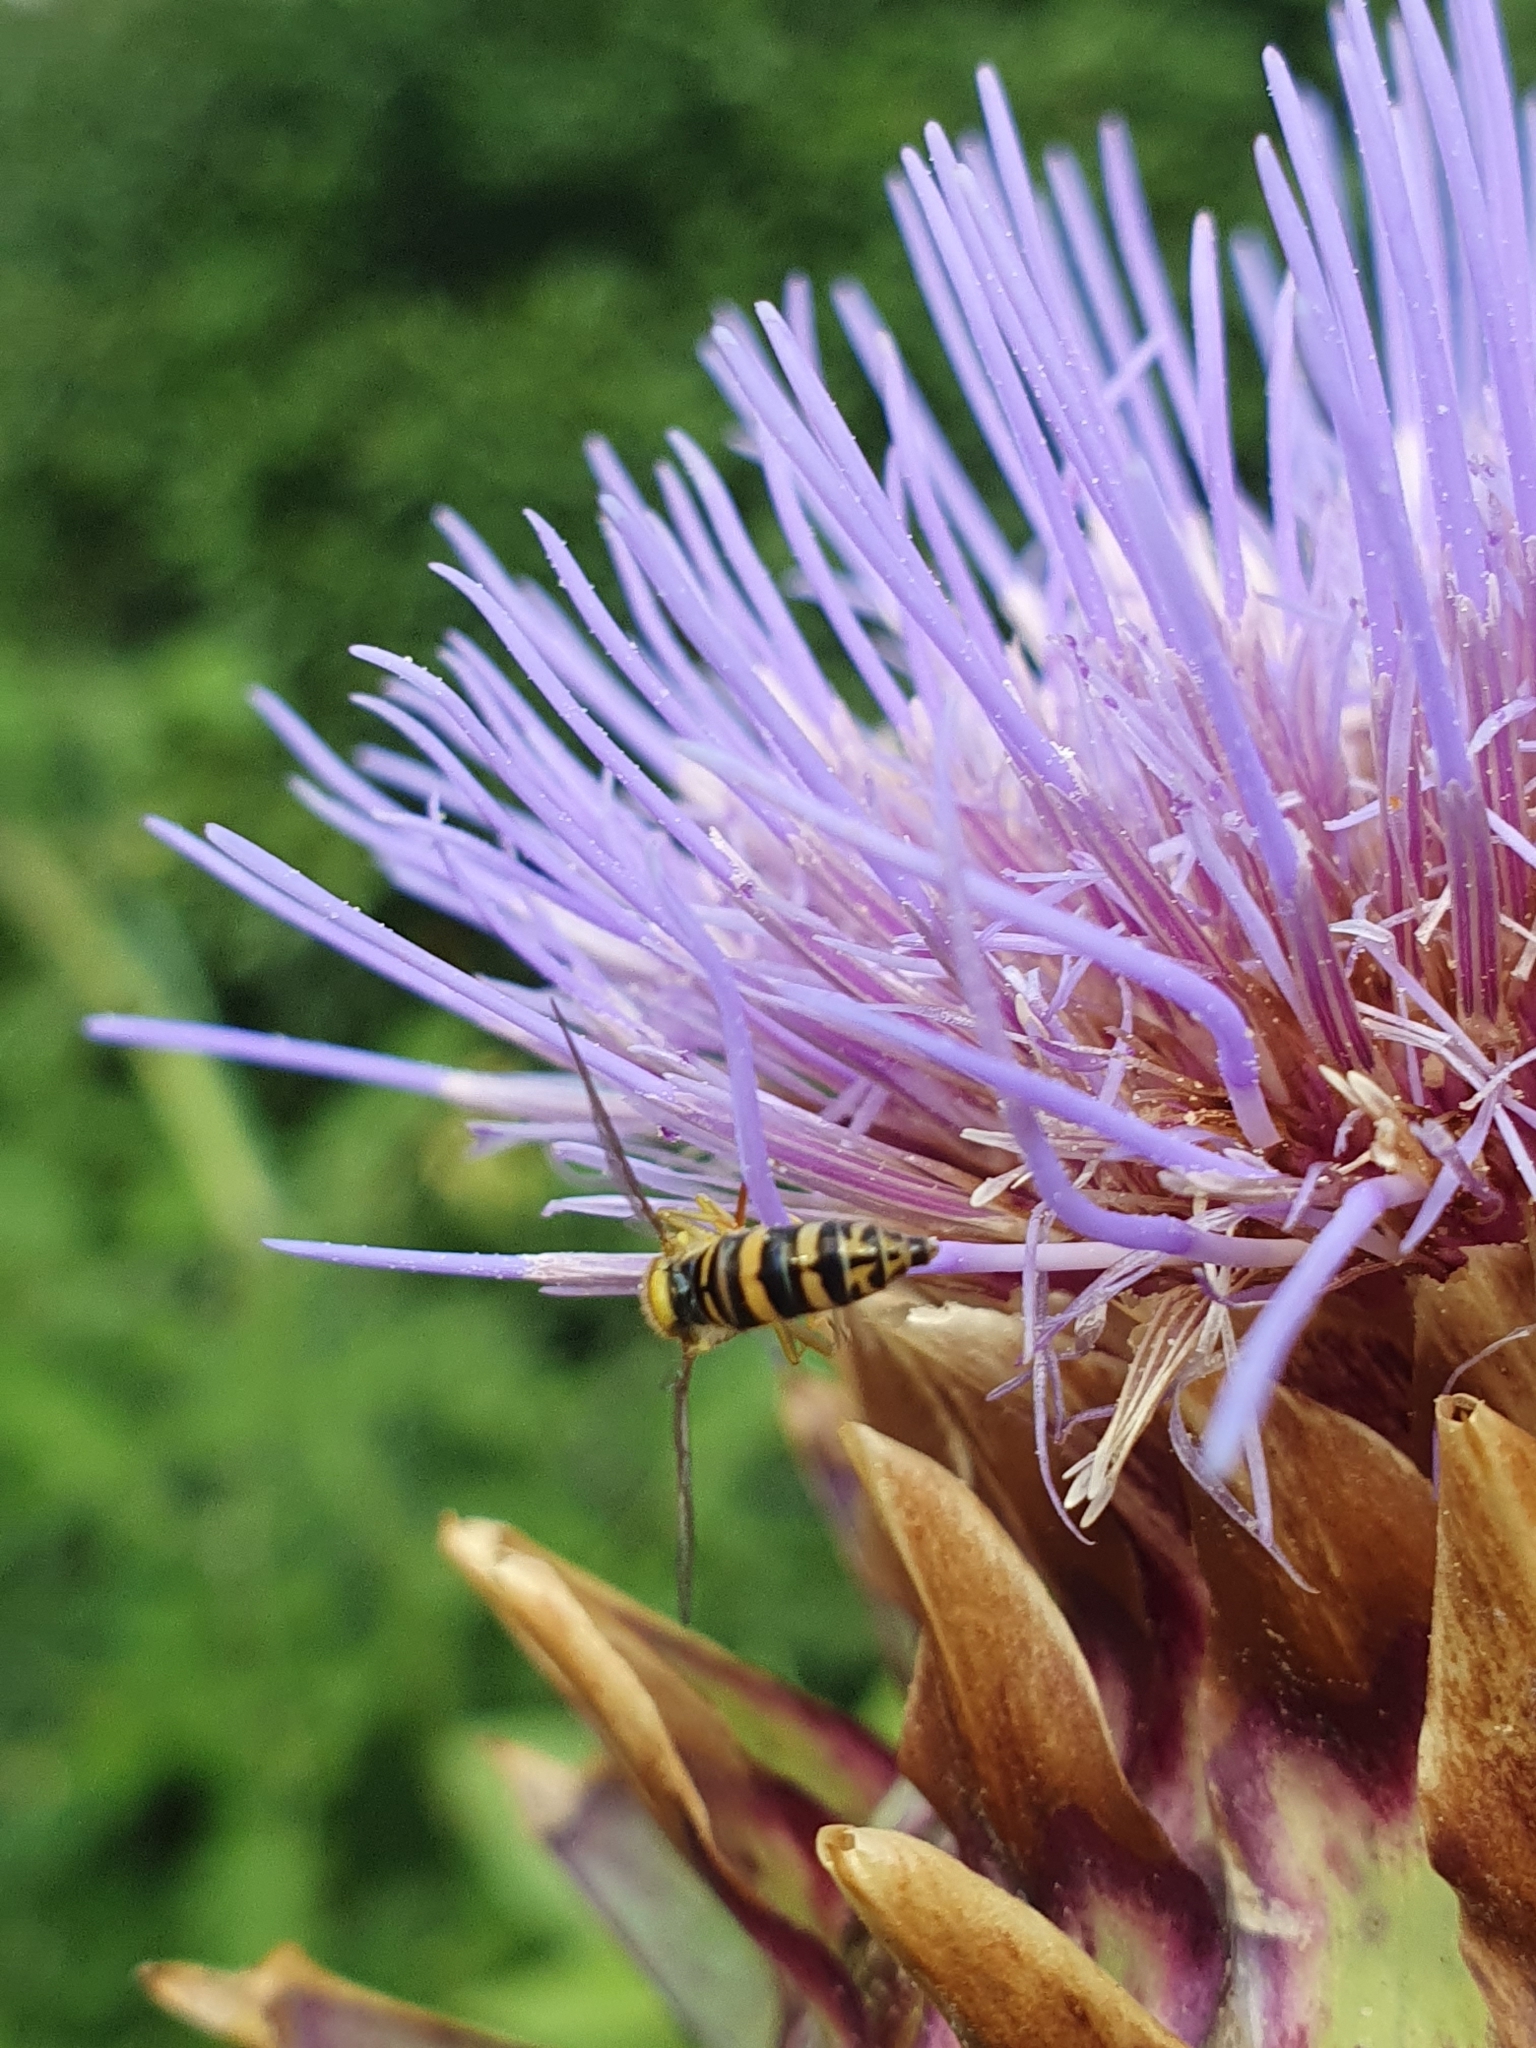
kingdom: Animalia
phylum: Arthropoda
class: Insecta
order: Diptera
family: Syrphidae
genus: Sphaerophoria
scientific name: Sphaerophoria
